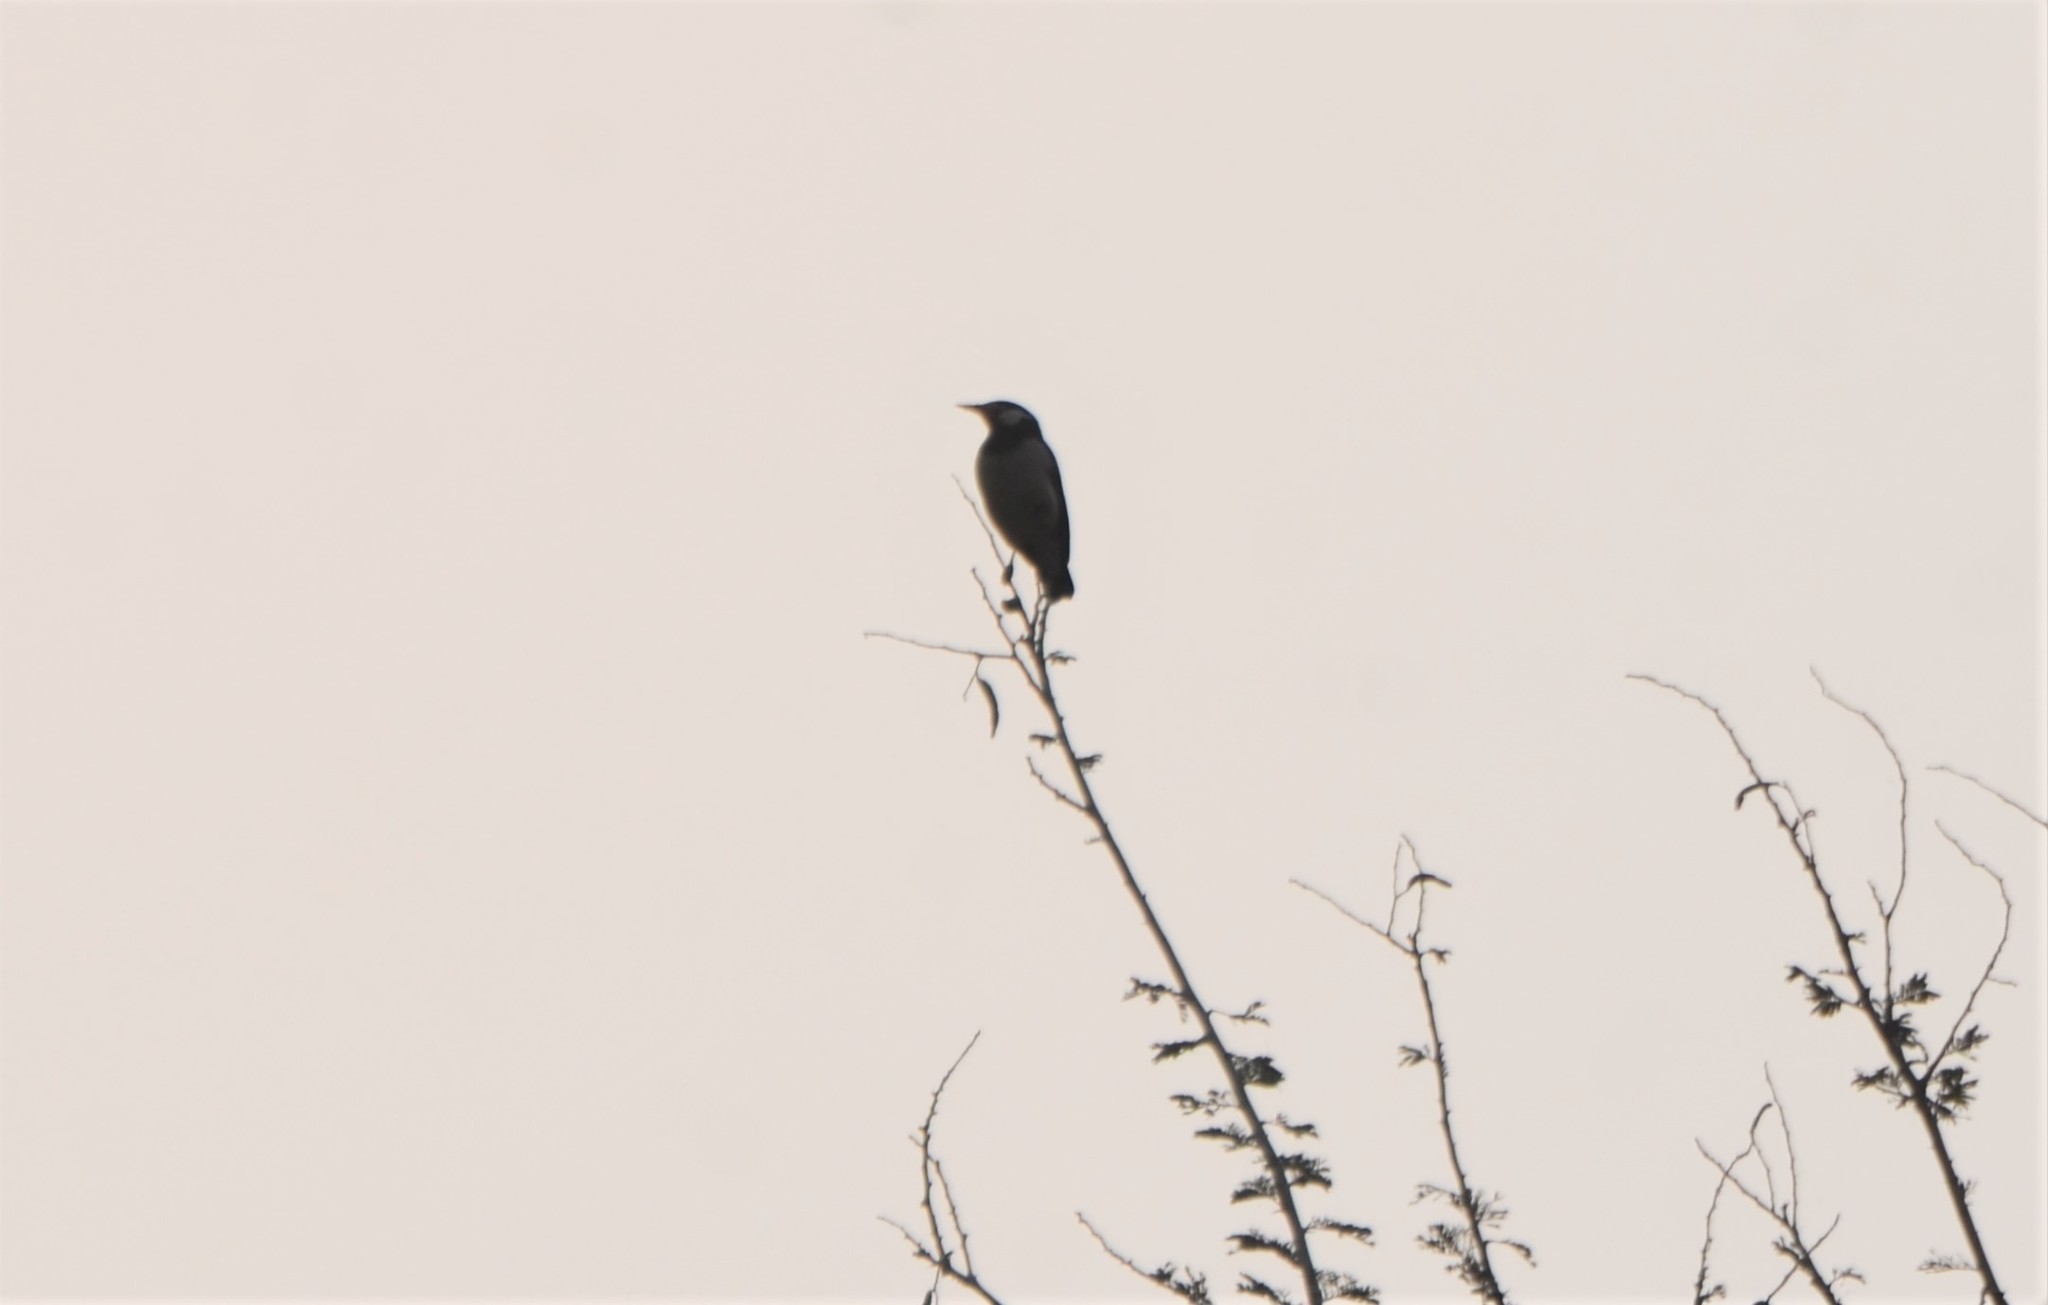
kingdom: Animalia
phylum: Chordata
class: Aves
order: Passeriformes
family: Sturnidae
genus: Gracupica
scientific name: Gracupica contra
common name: Pied myna
